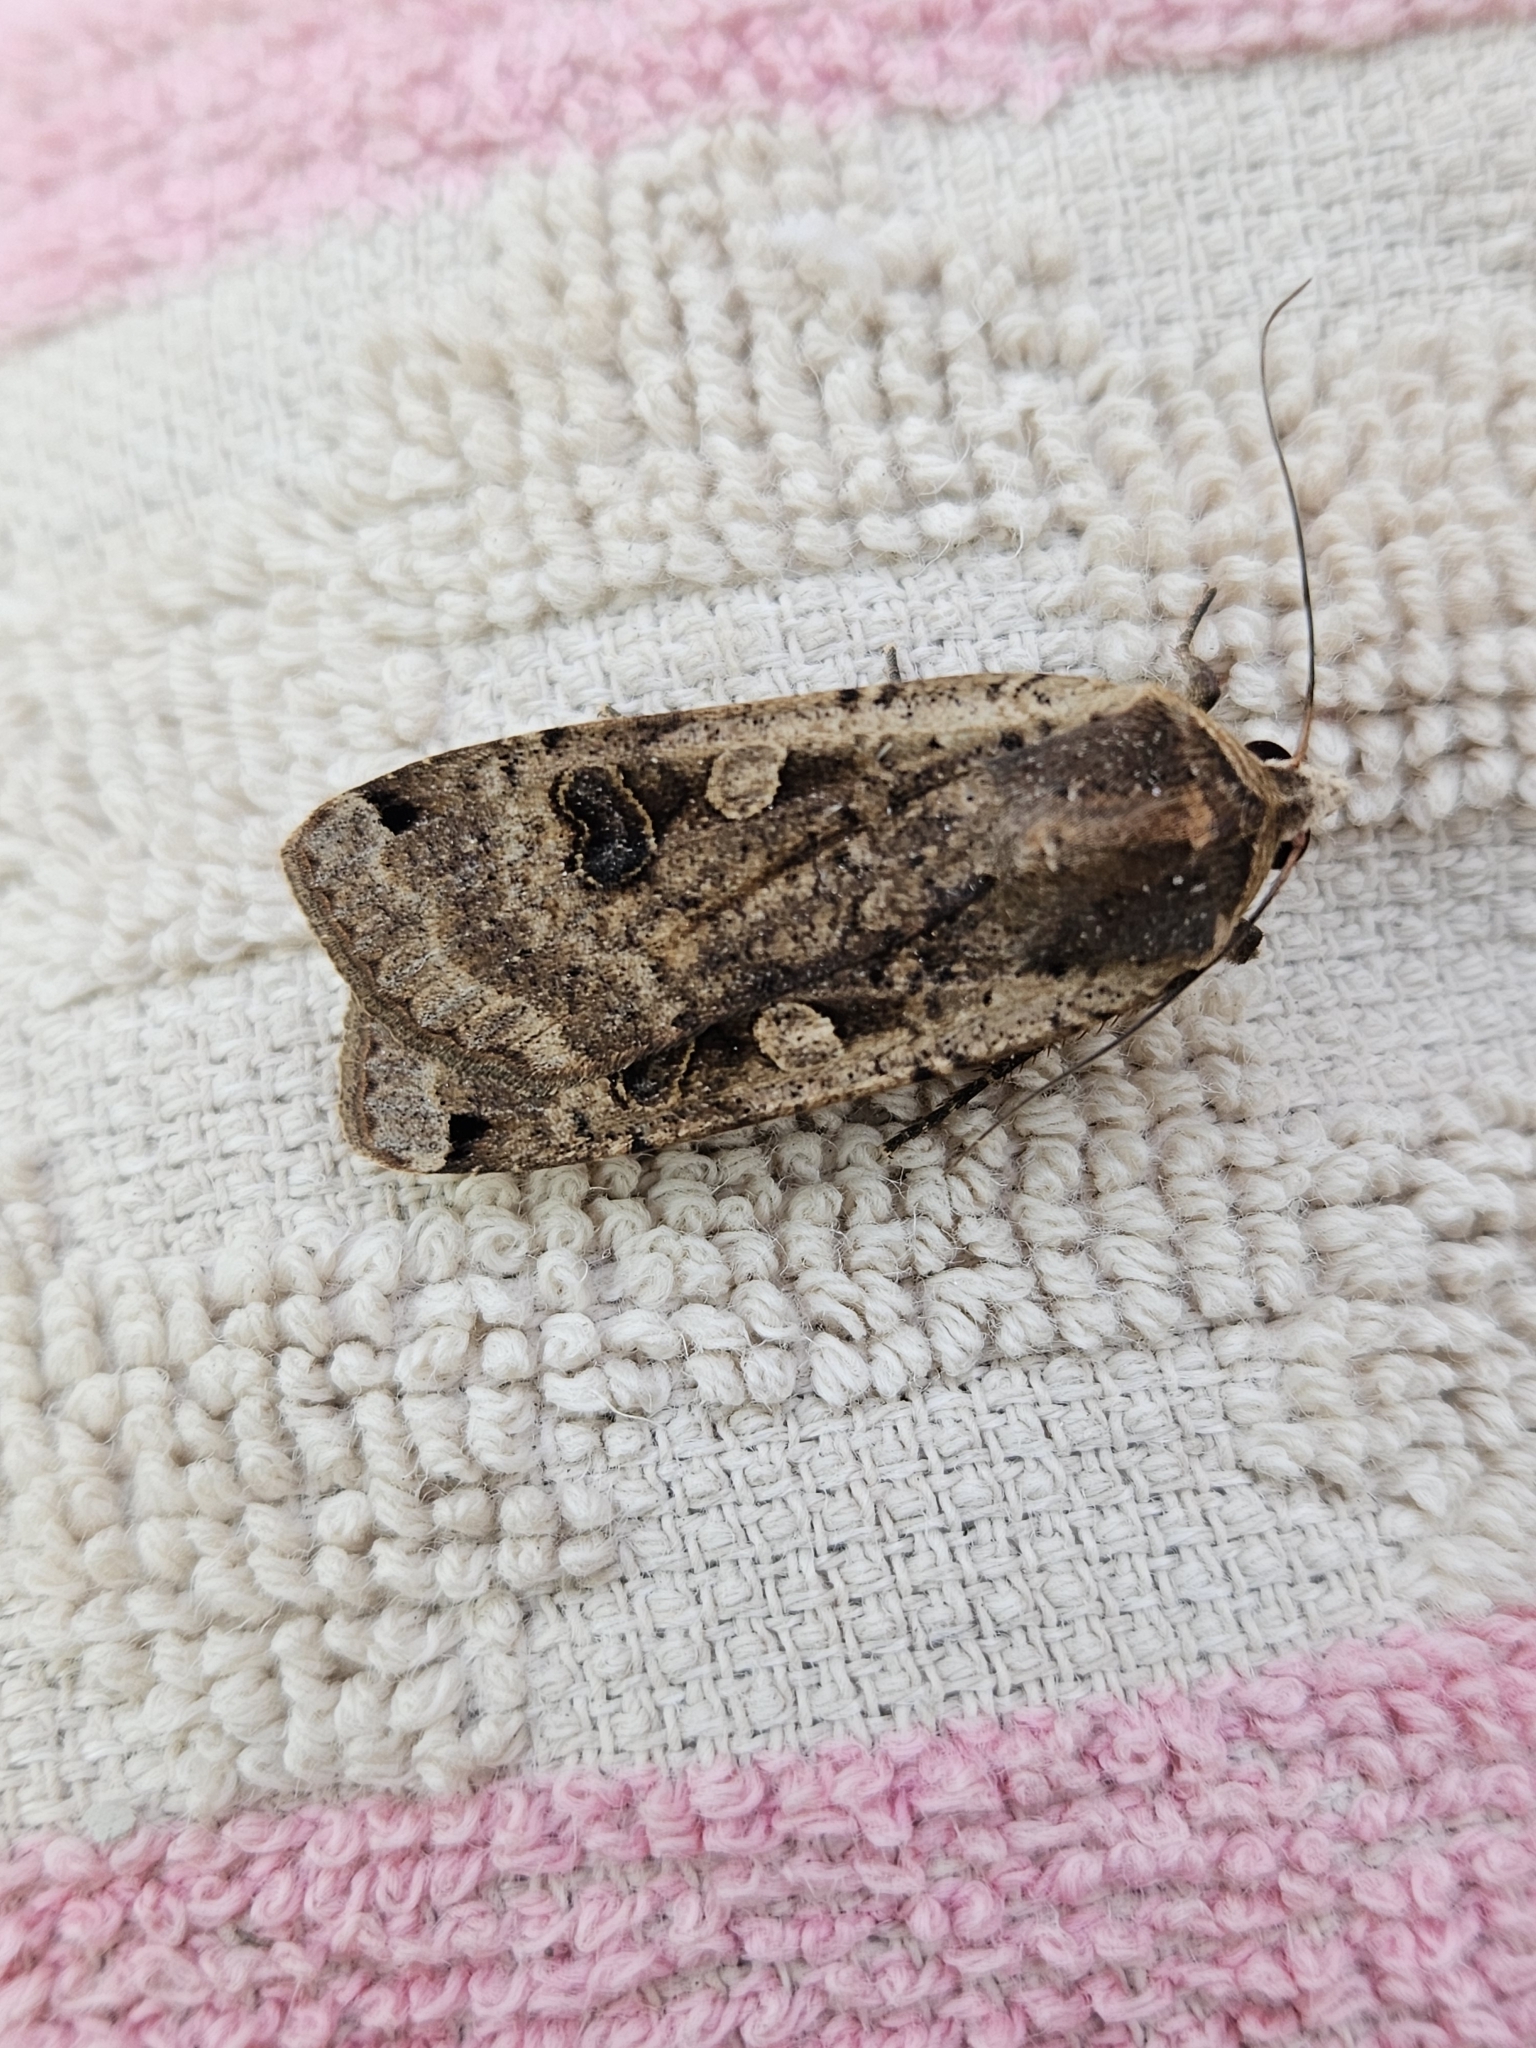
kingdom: Animalia
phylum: Arthropoda
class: Insecta
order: Lepidoptera
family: Noctuidae
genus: Noctua
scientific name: Noctua pronuba
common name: Large yellow underwing
